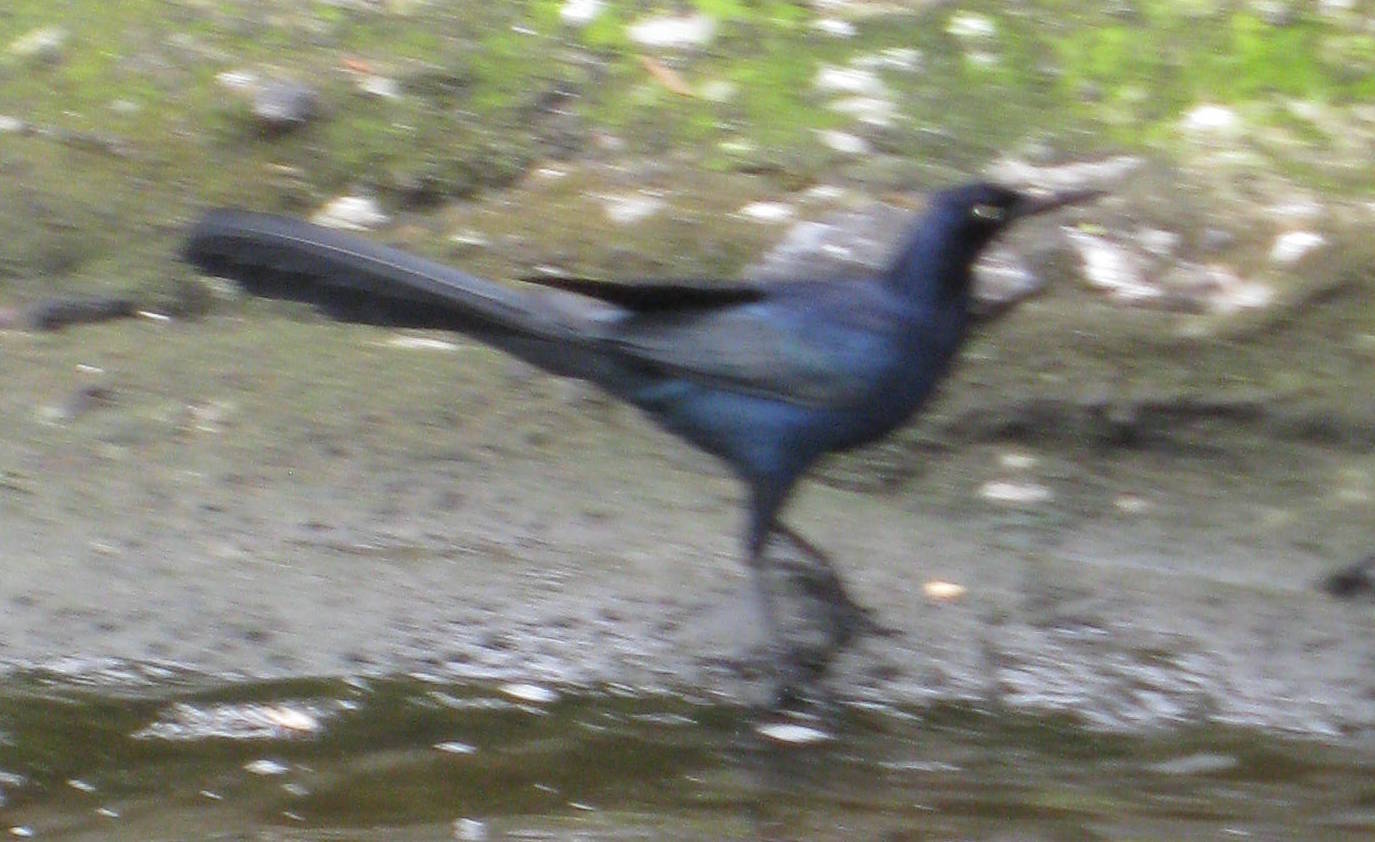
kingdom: Animalia
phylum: Chordata
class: Aves
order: Passeriformes
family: Icteridae
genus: Quiscalus
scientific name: Quiscalus mexicanus
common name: Great-tailed grackle
